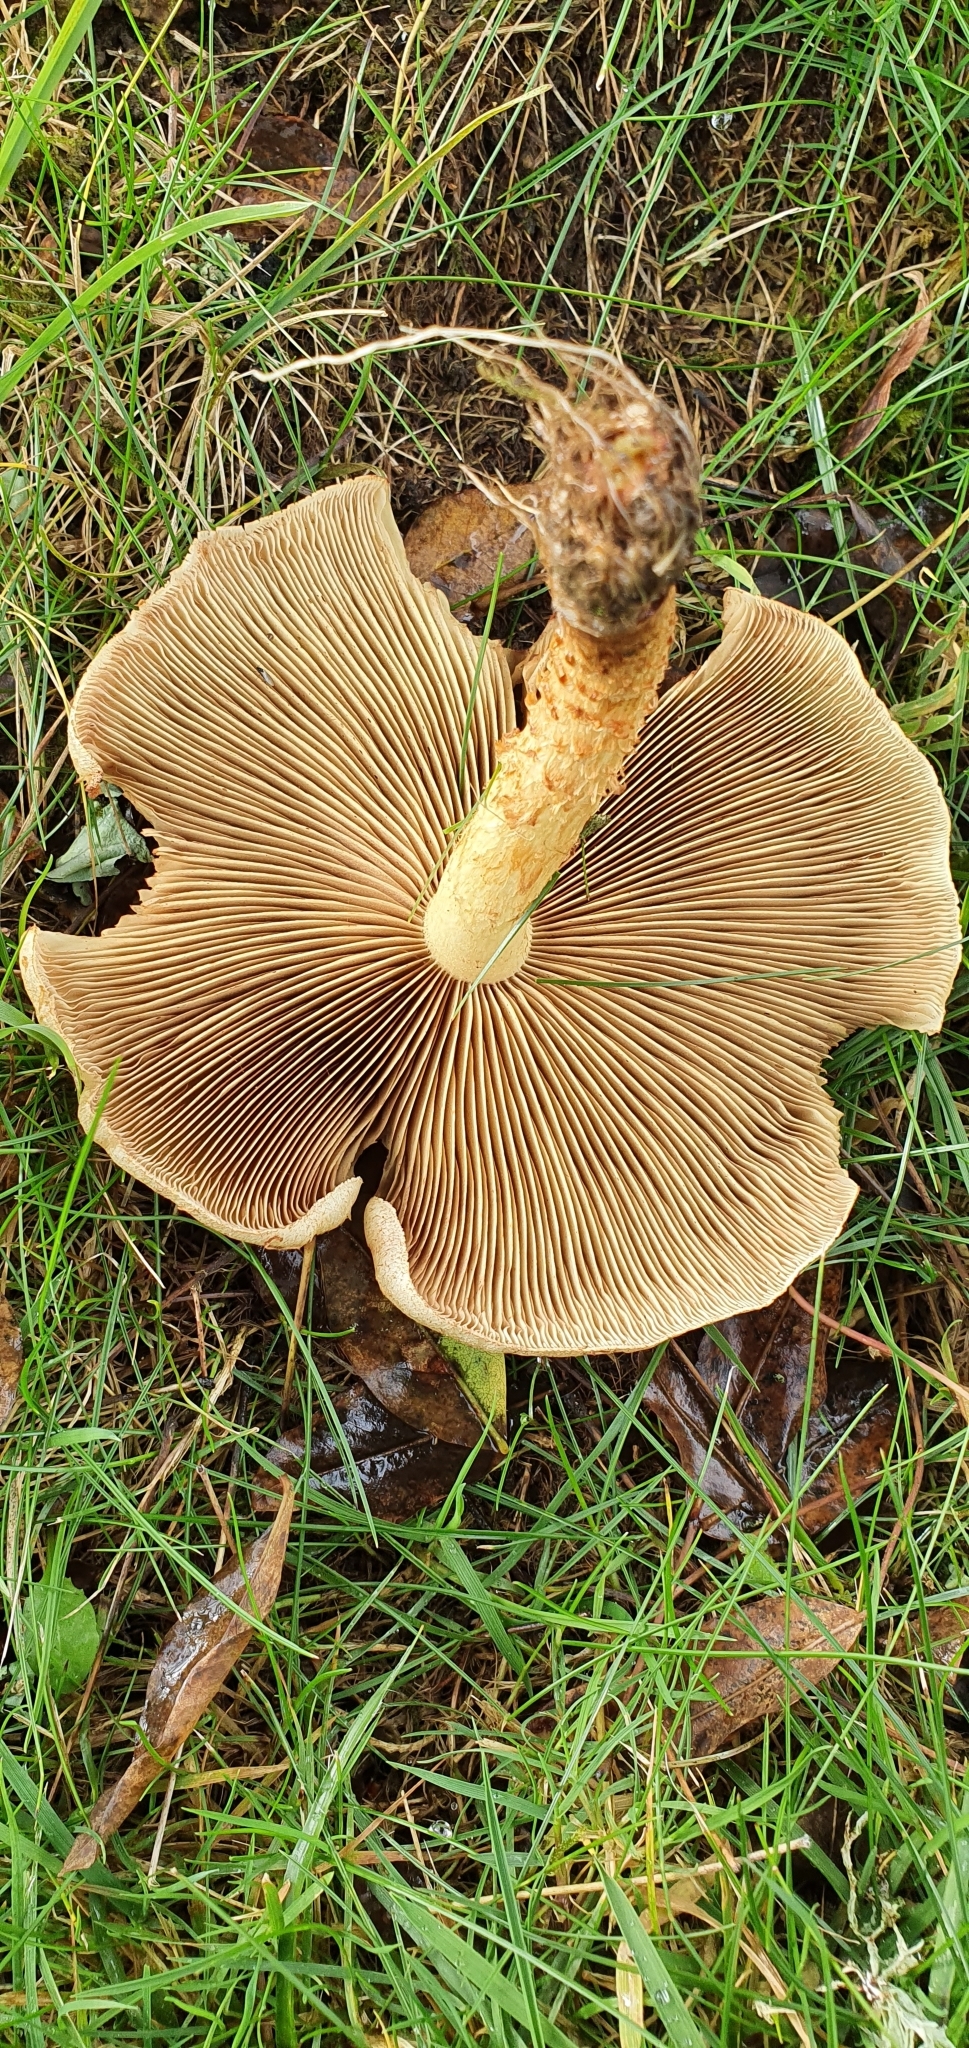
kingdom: Fungi
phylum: Basidiomycota
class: Agaricomycetes
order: Agaricales
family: Strophariaceae
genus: Pholiota
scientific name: Pholiota squarrosa
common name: Shaggy pholiota
